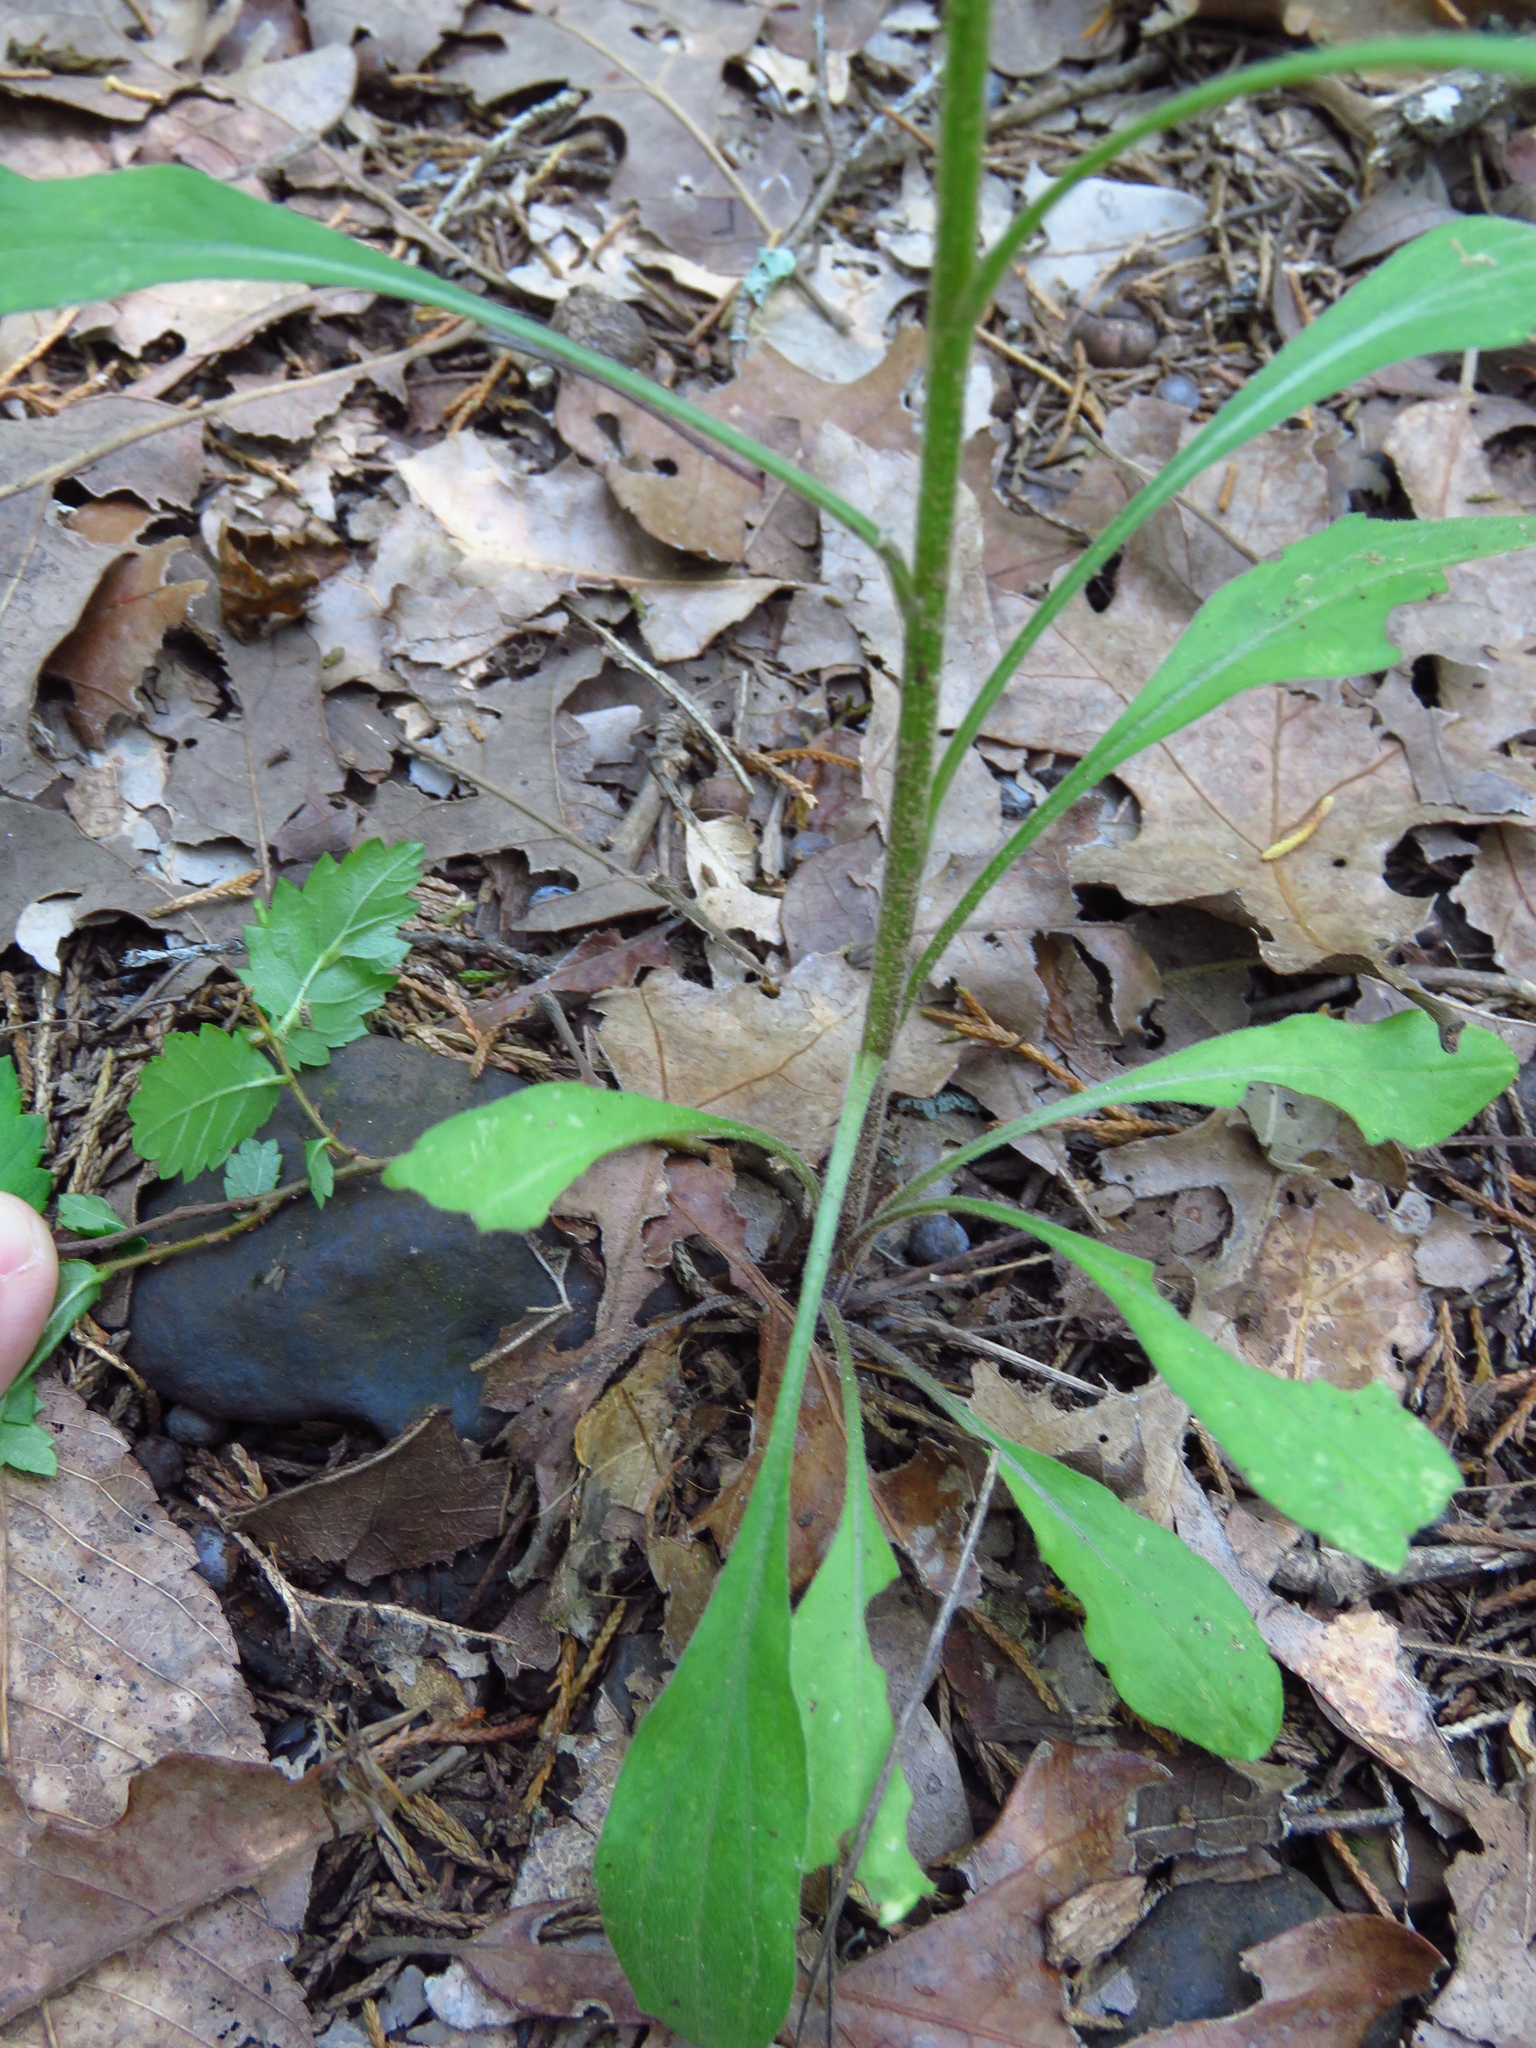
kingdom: Plantae
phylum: Tracheophyta
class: Magnoliopsida
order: Asterales
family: Asteraceae
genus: Erigeron
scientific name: Erigeron strigosus
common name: Common eastern fleabane
